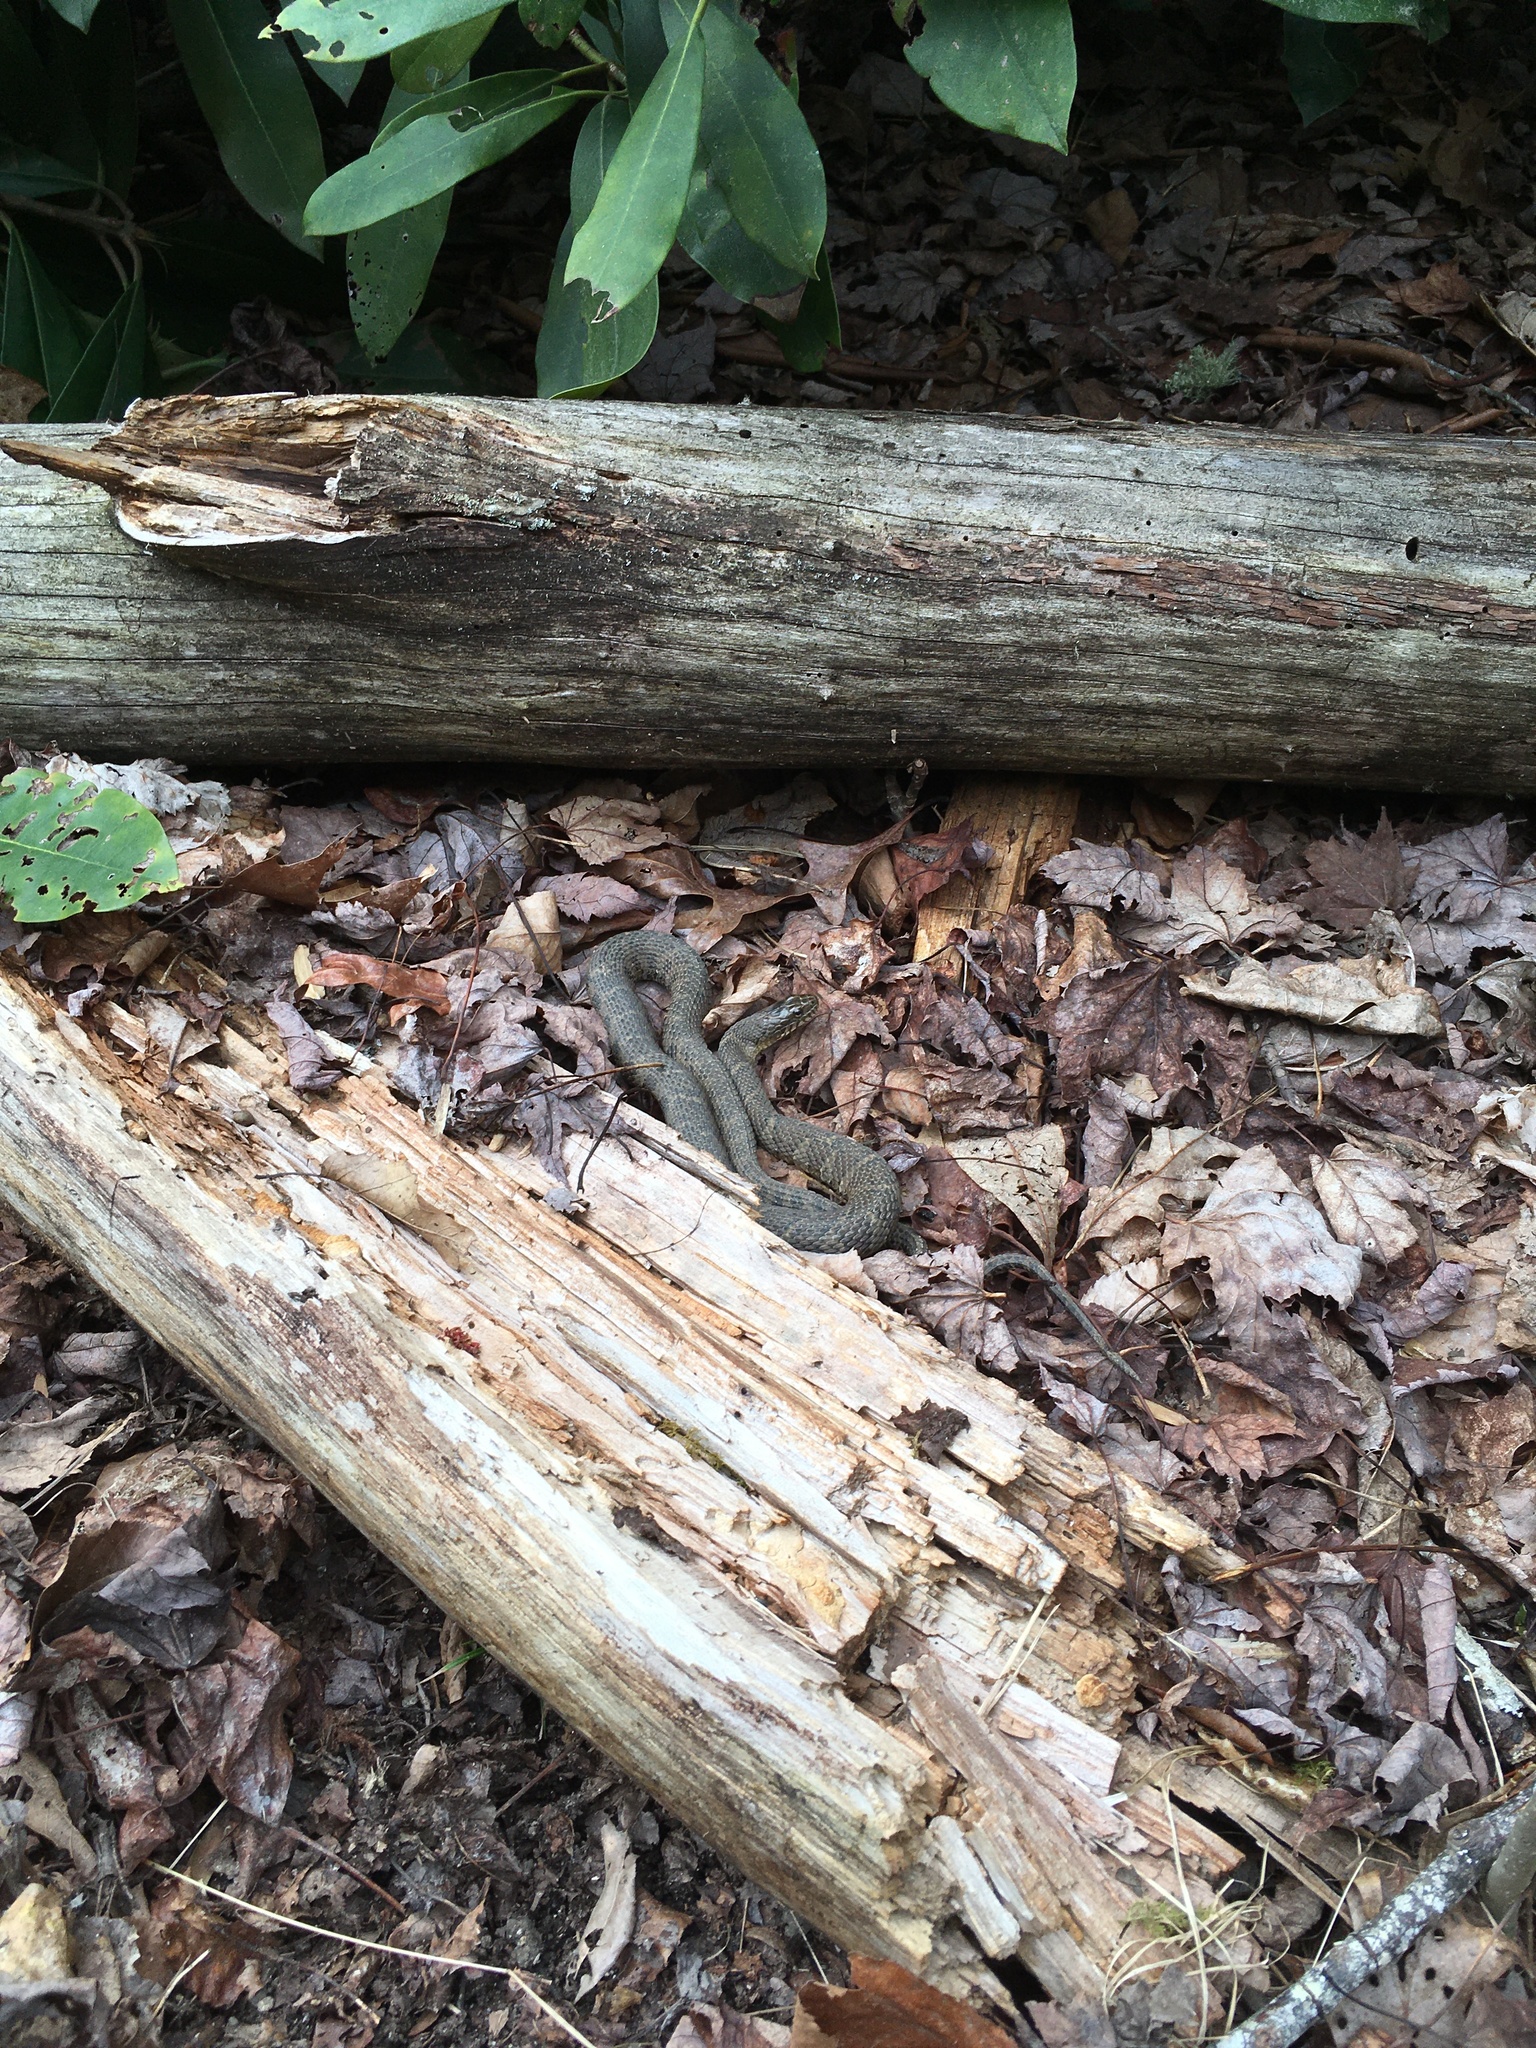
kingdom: Animalia
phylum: Chordata
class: Squamata
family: Colubridae
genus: Nerodia
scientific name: Nerodia sipedon
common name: Northern water snake
